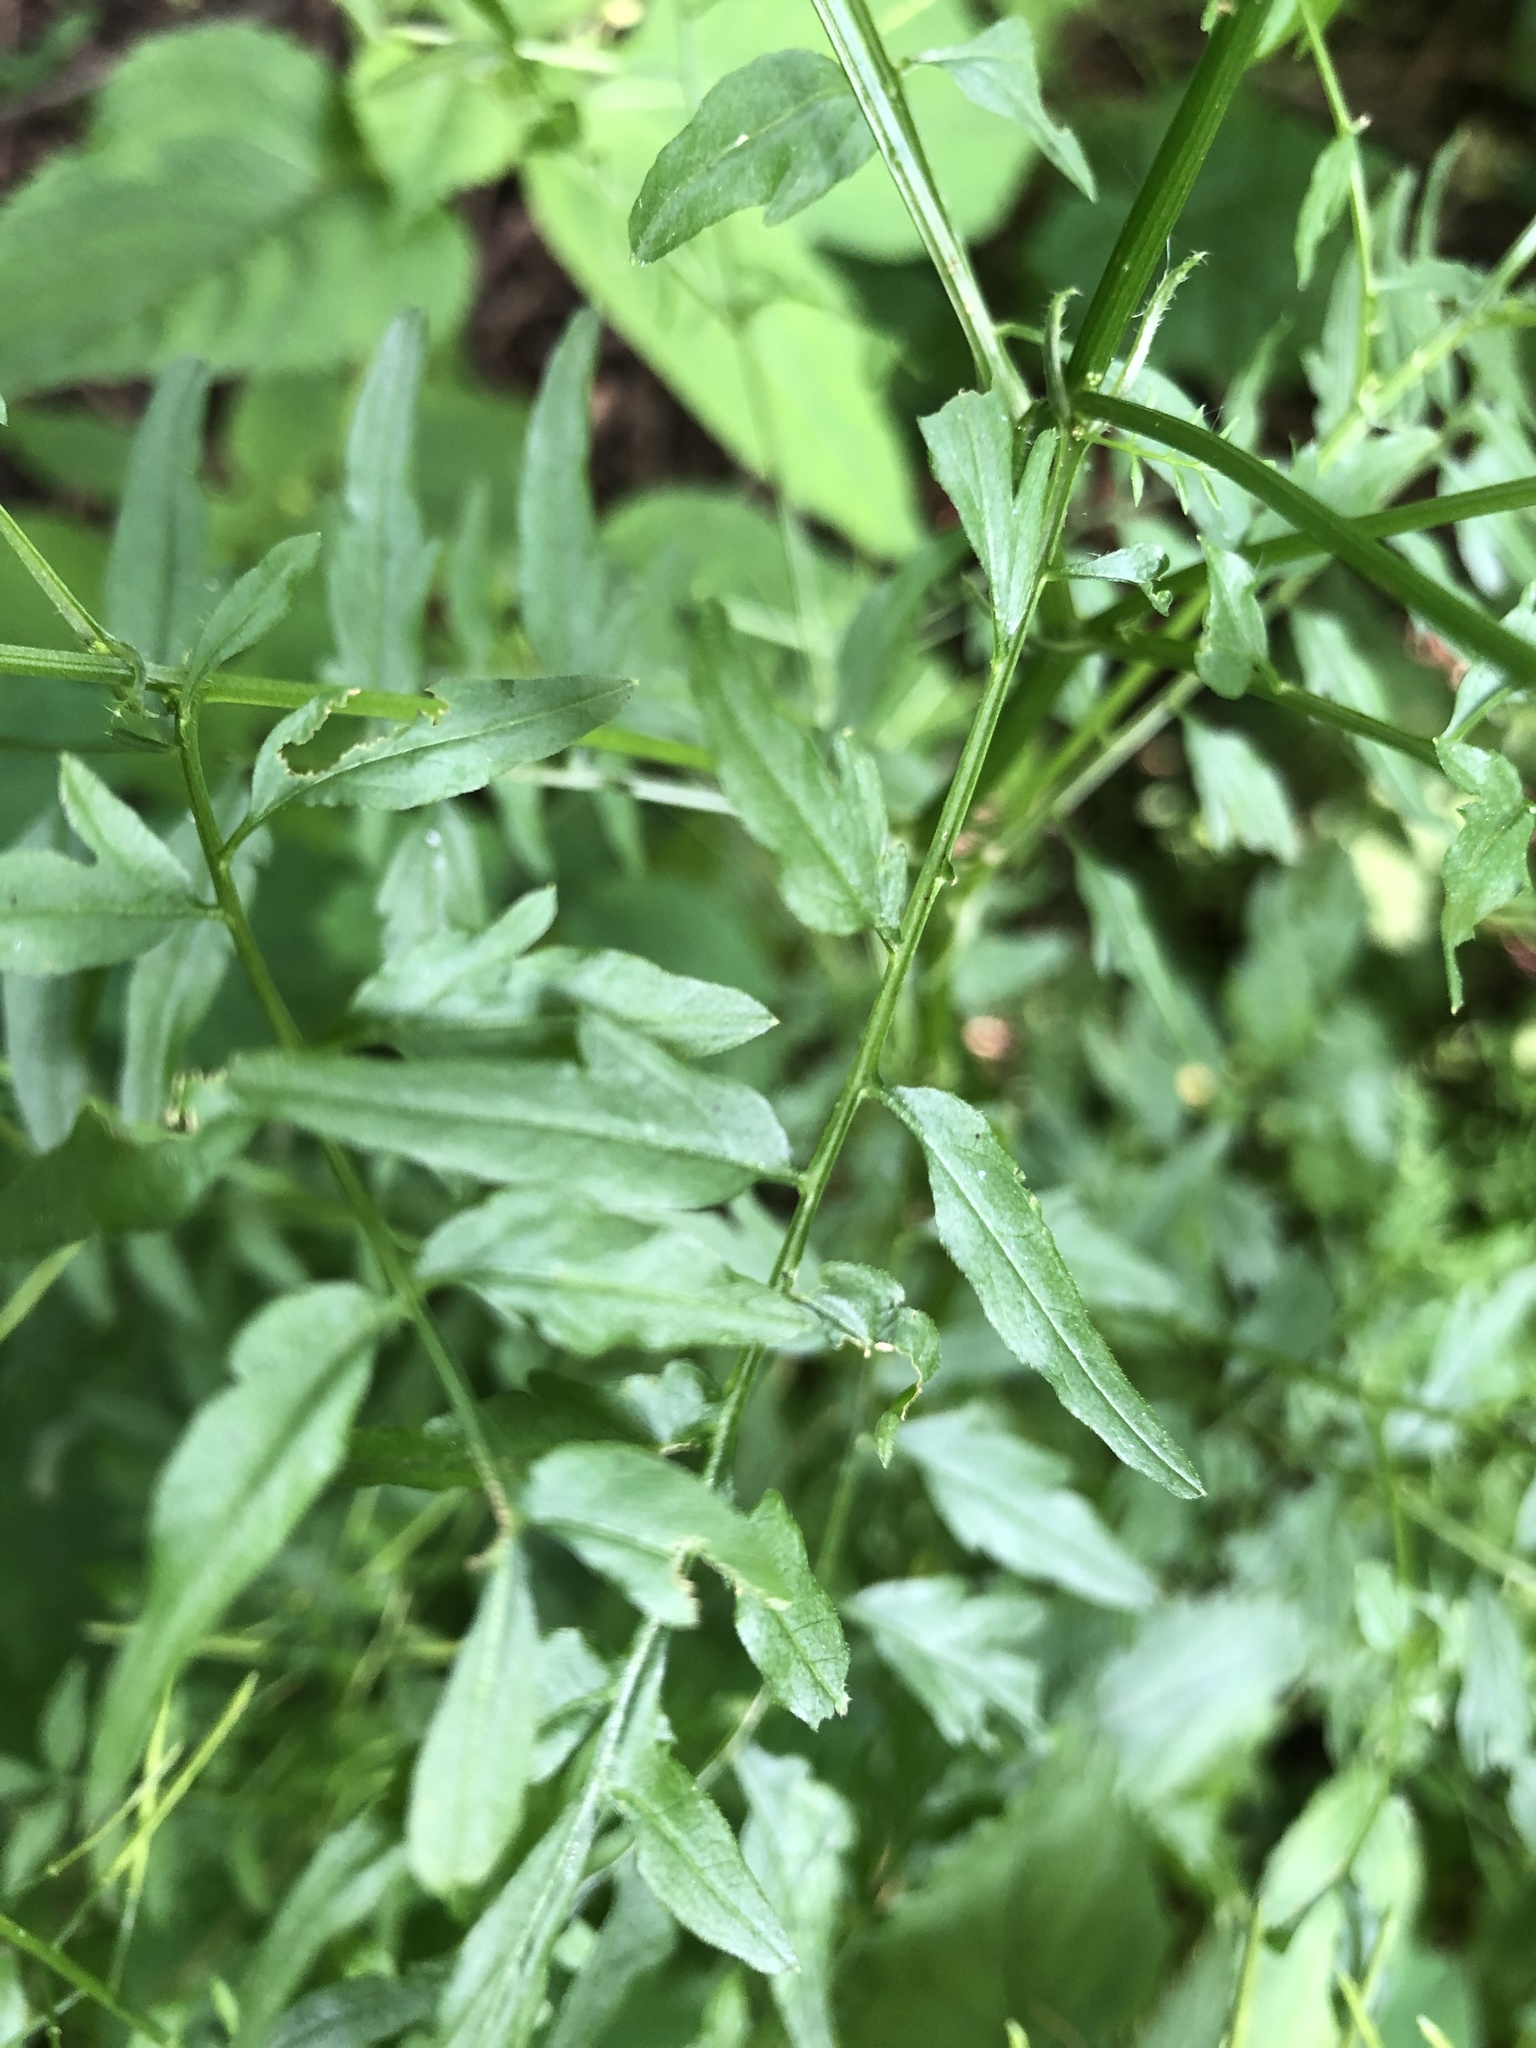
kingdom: Plantae
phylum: Tracheophyta
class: Magnoliopsida
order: Brassicales
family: Brassicaceae
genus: Cardamine
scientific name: Cardamine impatiens
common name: Narrow-leaved bitter-cress
